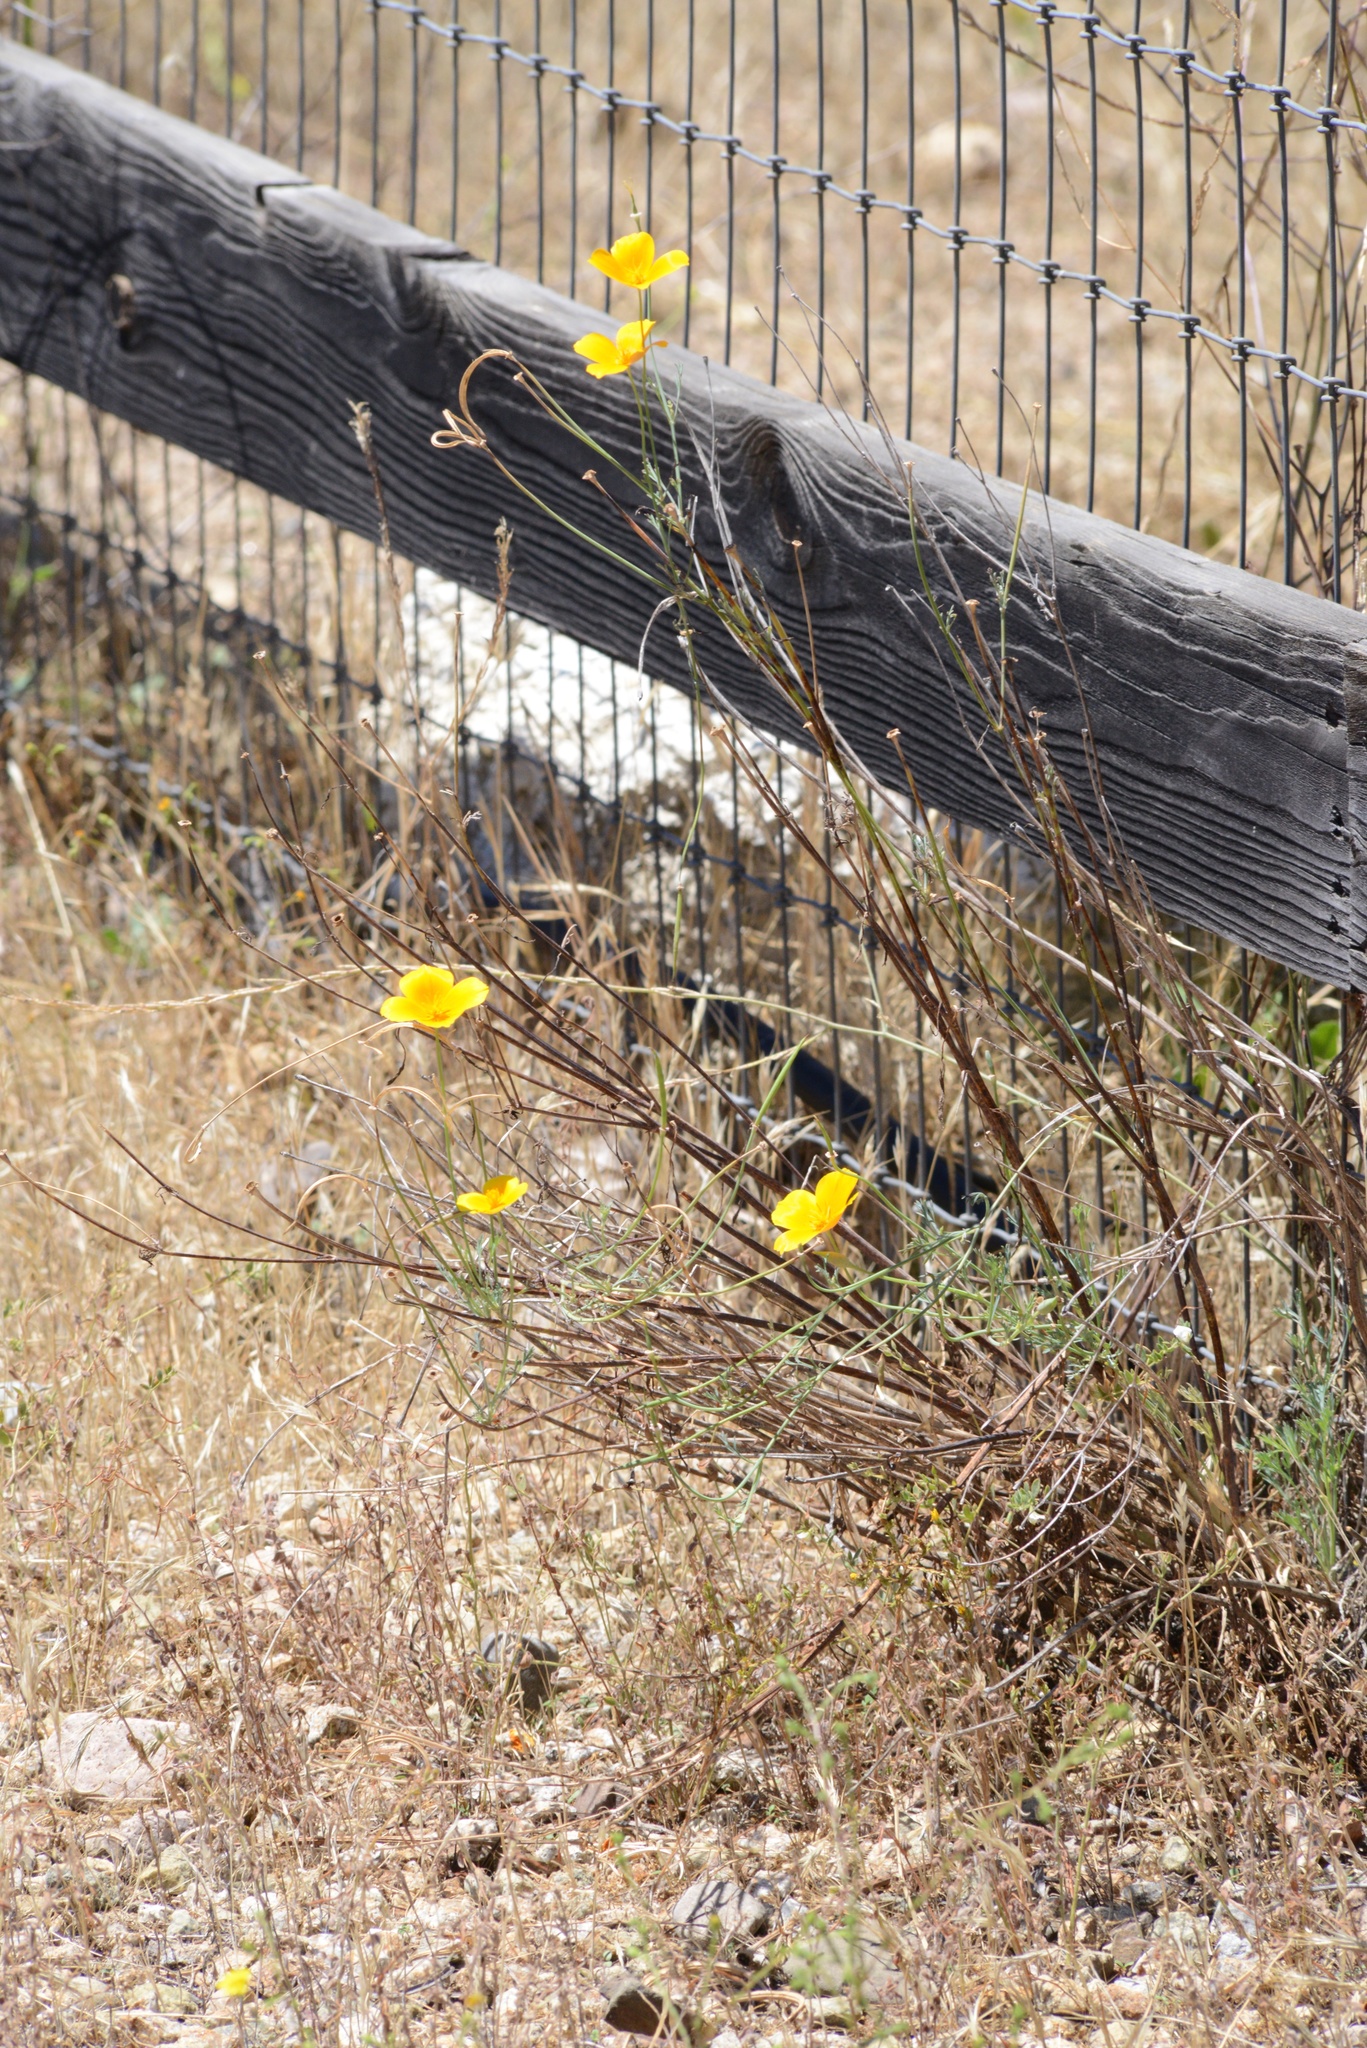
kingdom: Plantae
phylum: Tracheophyta
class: Magnoliopsida
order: Ranunculales
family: Papaveraceae
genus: Eschscholzia
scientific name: Eschscholzia californica
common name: California poppy
